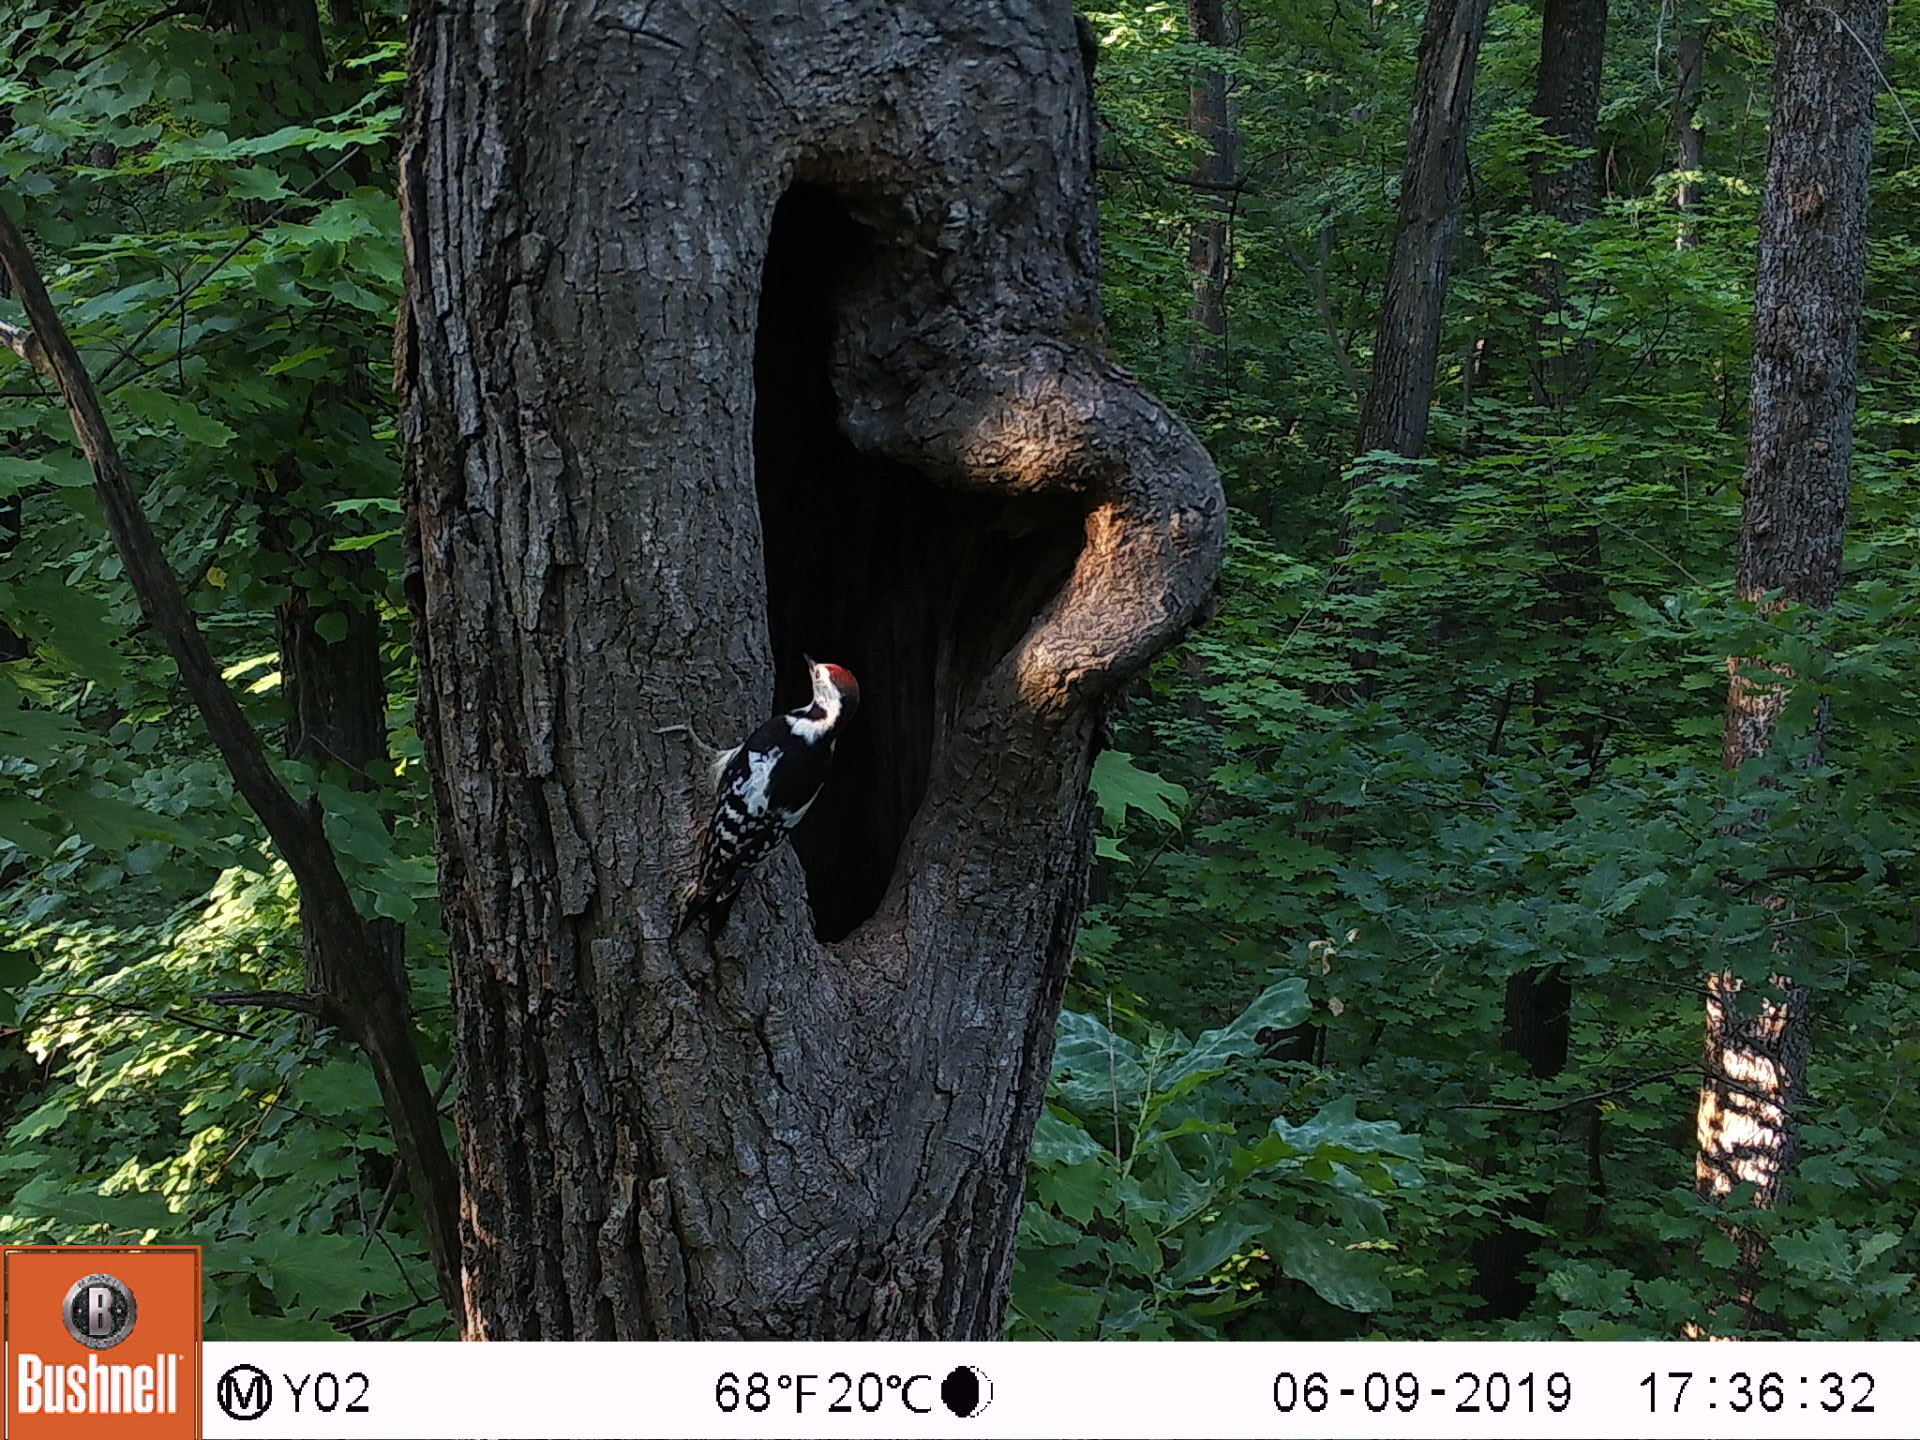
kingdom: Animalia
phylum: Chordata
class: Aves
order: Piciformes
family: Picidae
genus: Dendrocoptes
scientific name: Dendrocoptes medius
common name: Middle spotted woodpecker
